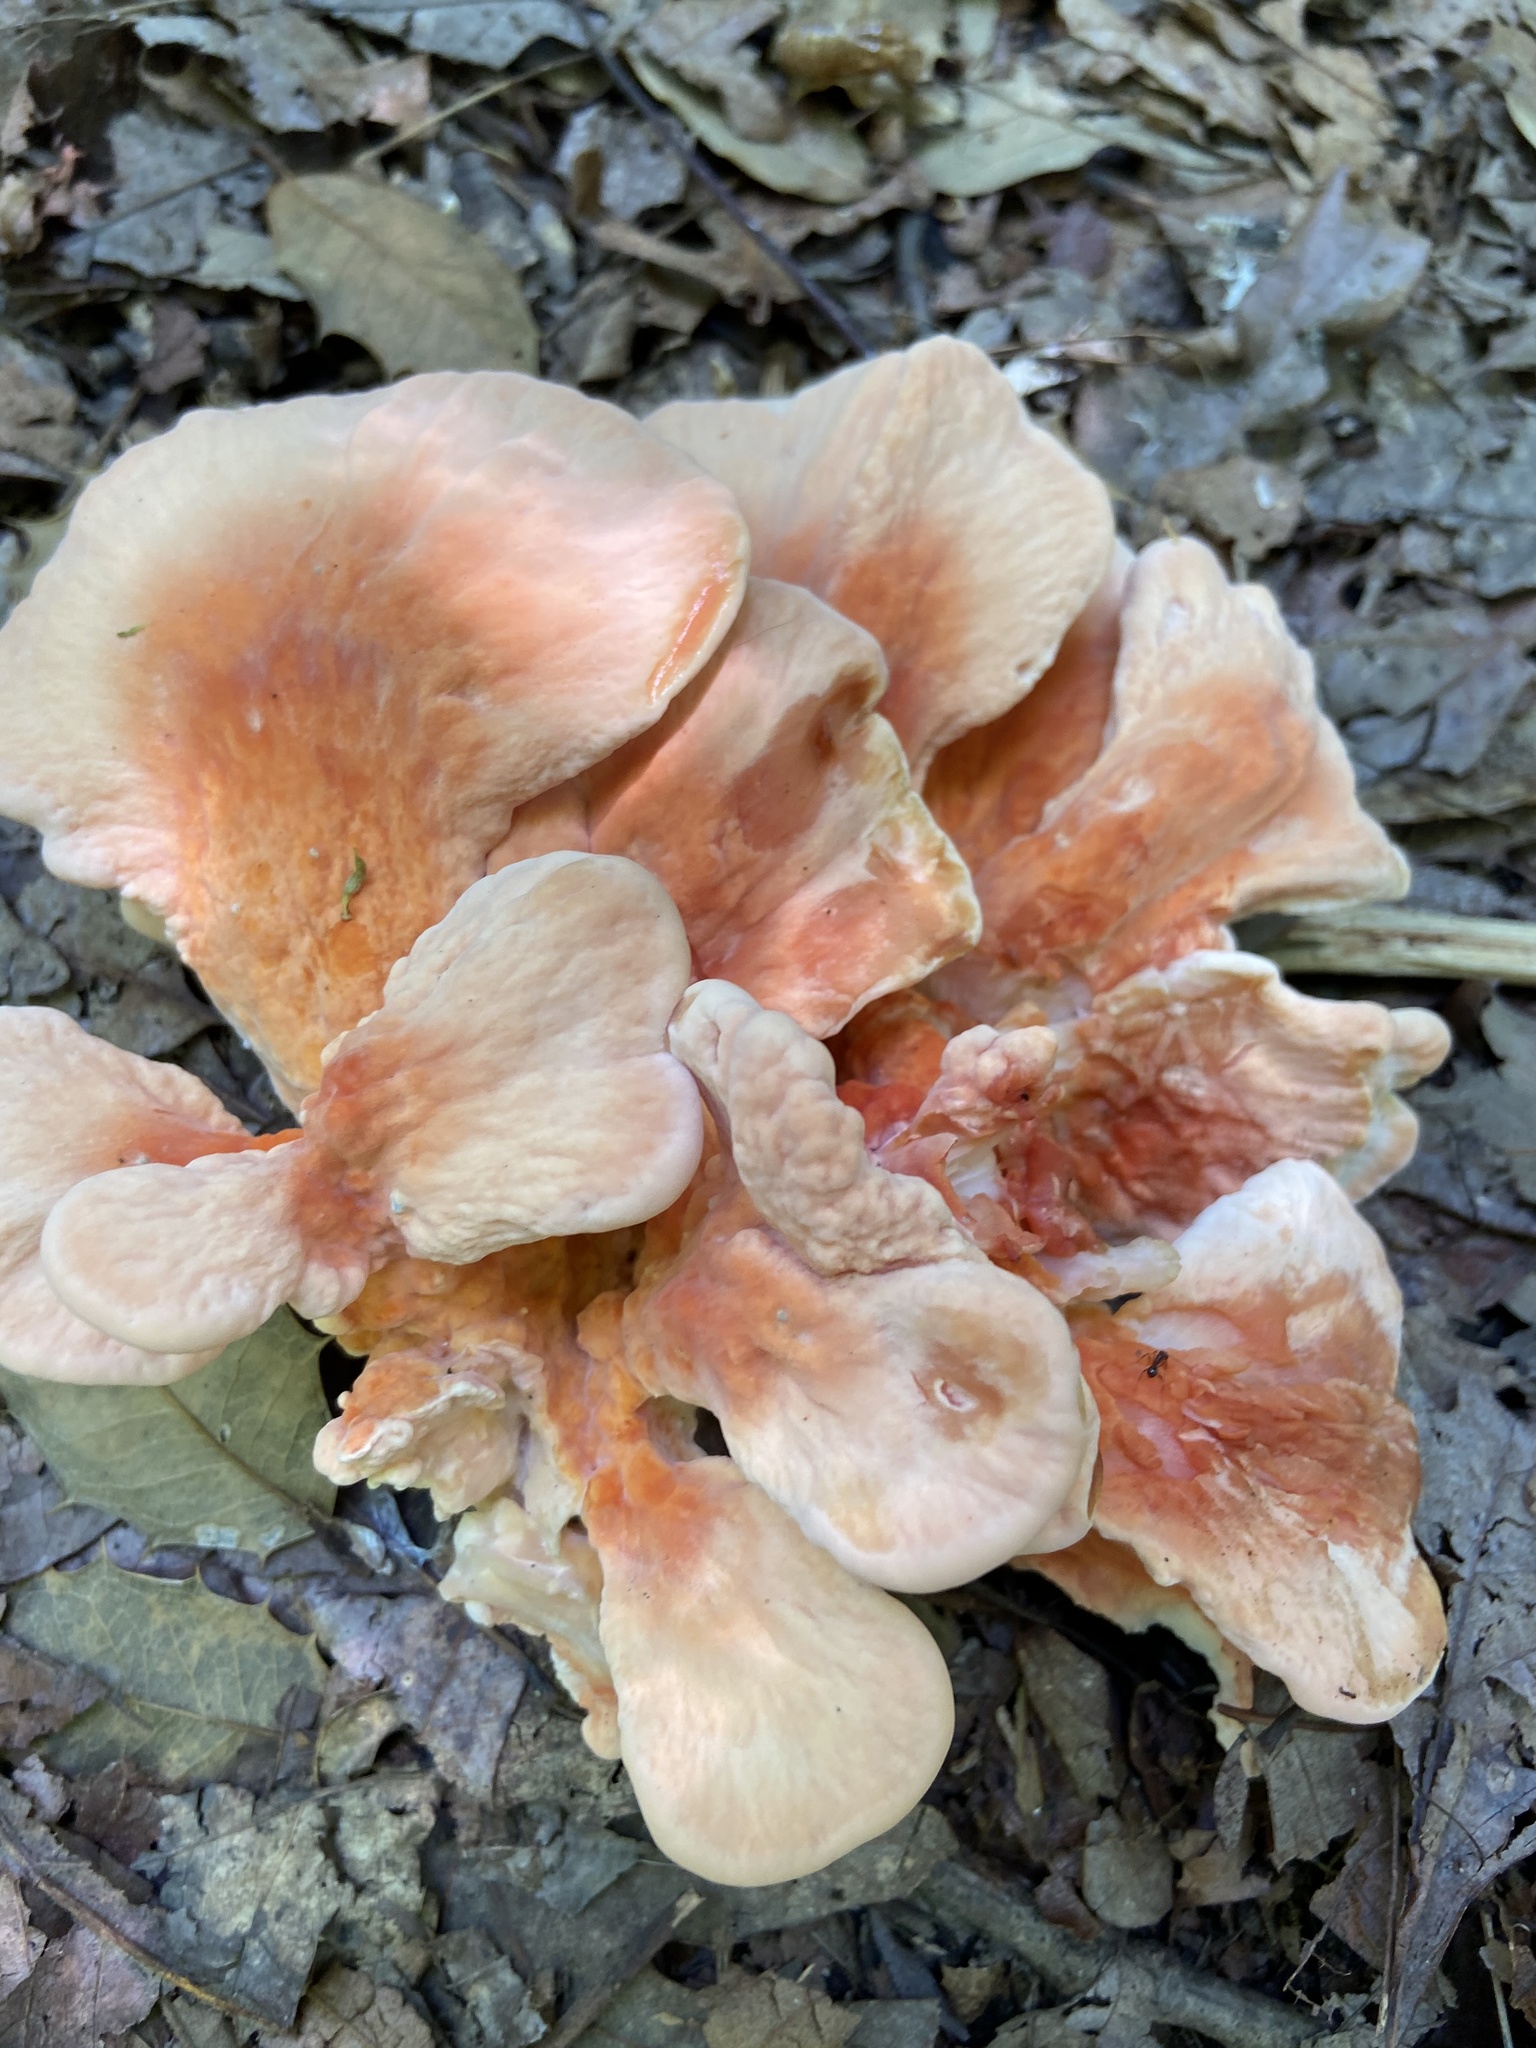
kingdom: Fungi
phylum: Basidiomycota
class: Agaricomycetes
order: Polyporales
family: Laetiporaceae
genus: Laetiporus
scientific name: Laetiporus sulphureus
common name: Chicken of the woods
